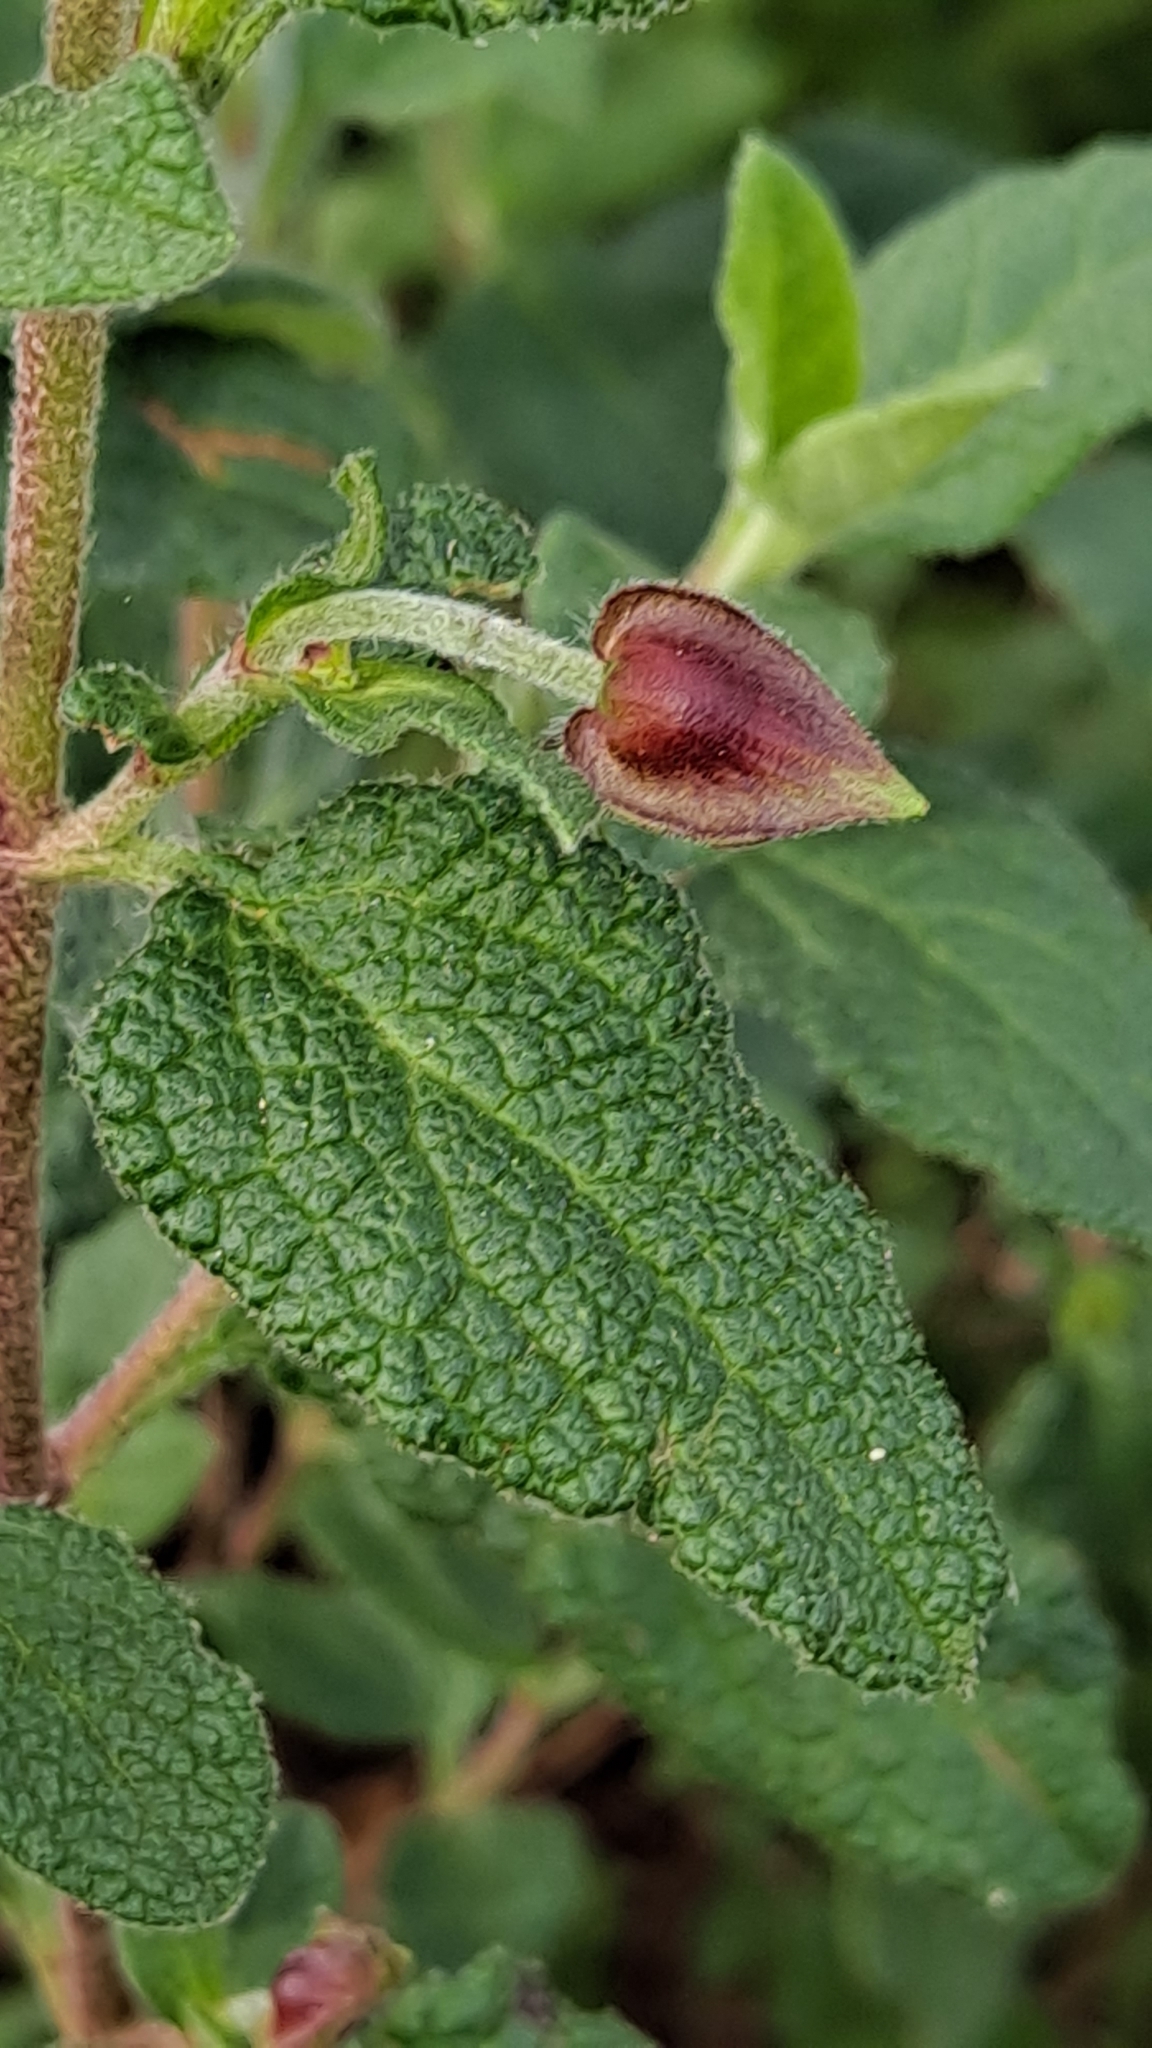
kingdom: Plantae
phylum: Tracheophyta
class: Magnoliopsida
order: Malvales
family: Cistaceae
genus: Cistus
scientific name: Cistus salviifolius
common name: Salvia cistus
